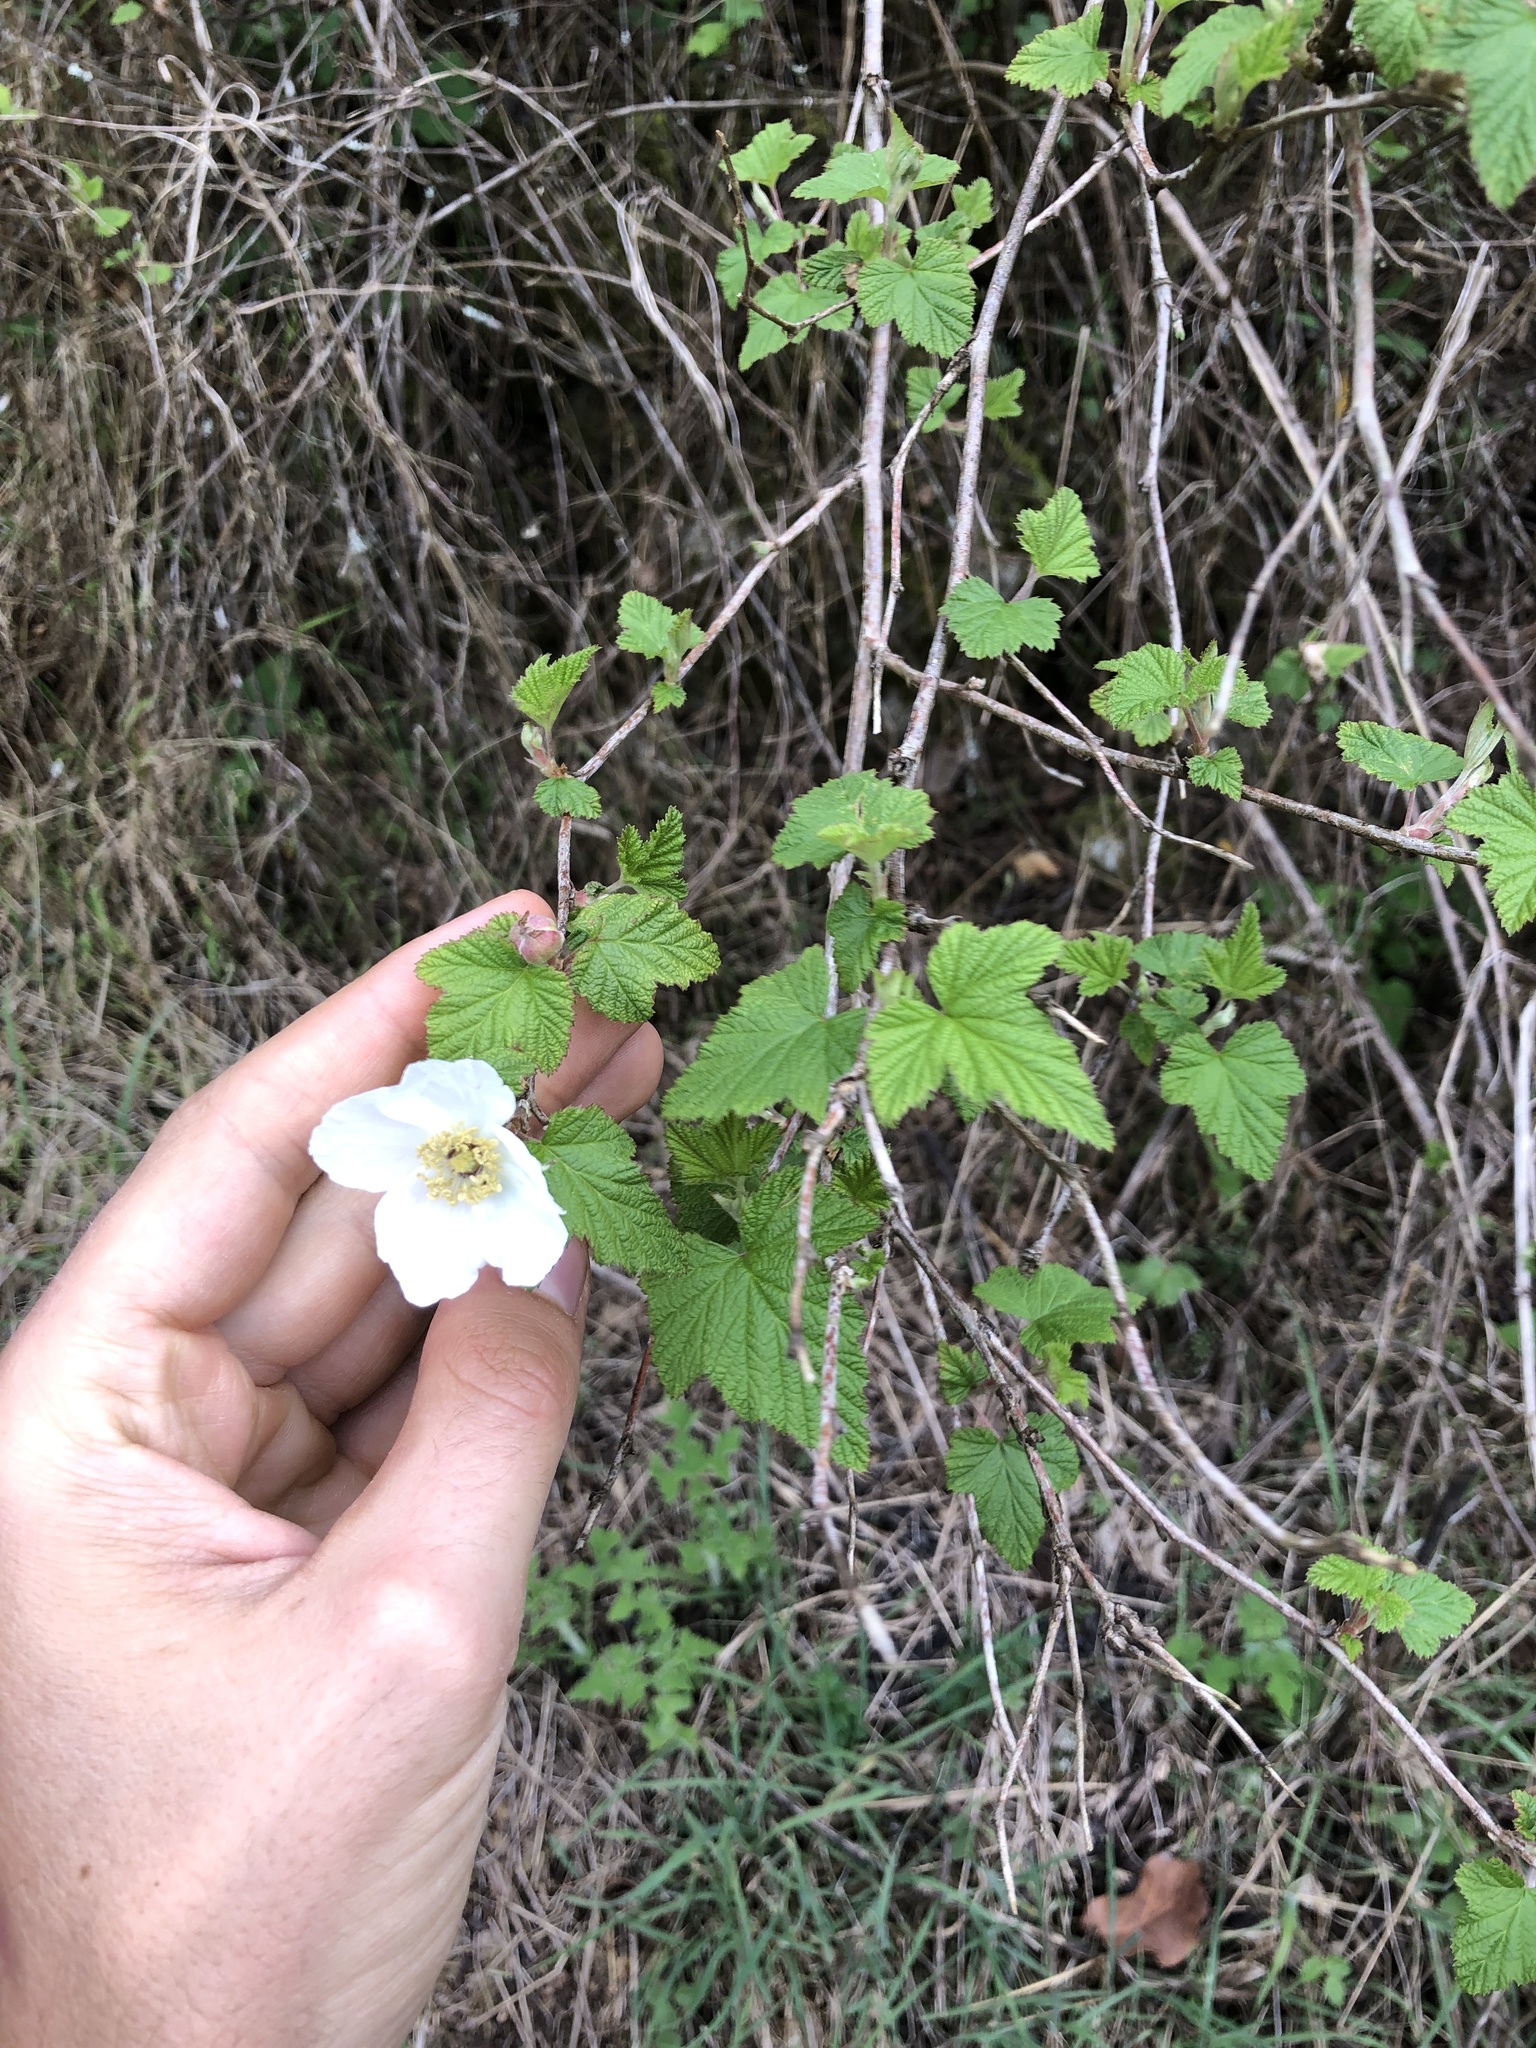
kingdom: Plantae
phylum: Tracheophyta
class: Magnoliopsida
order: Rosales
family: Rosaceae
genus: Rubus
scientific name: Rubus trilobus
